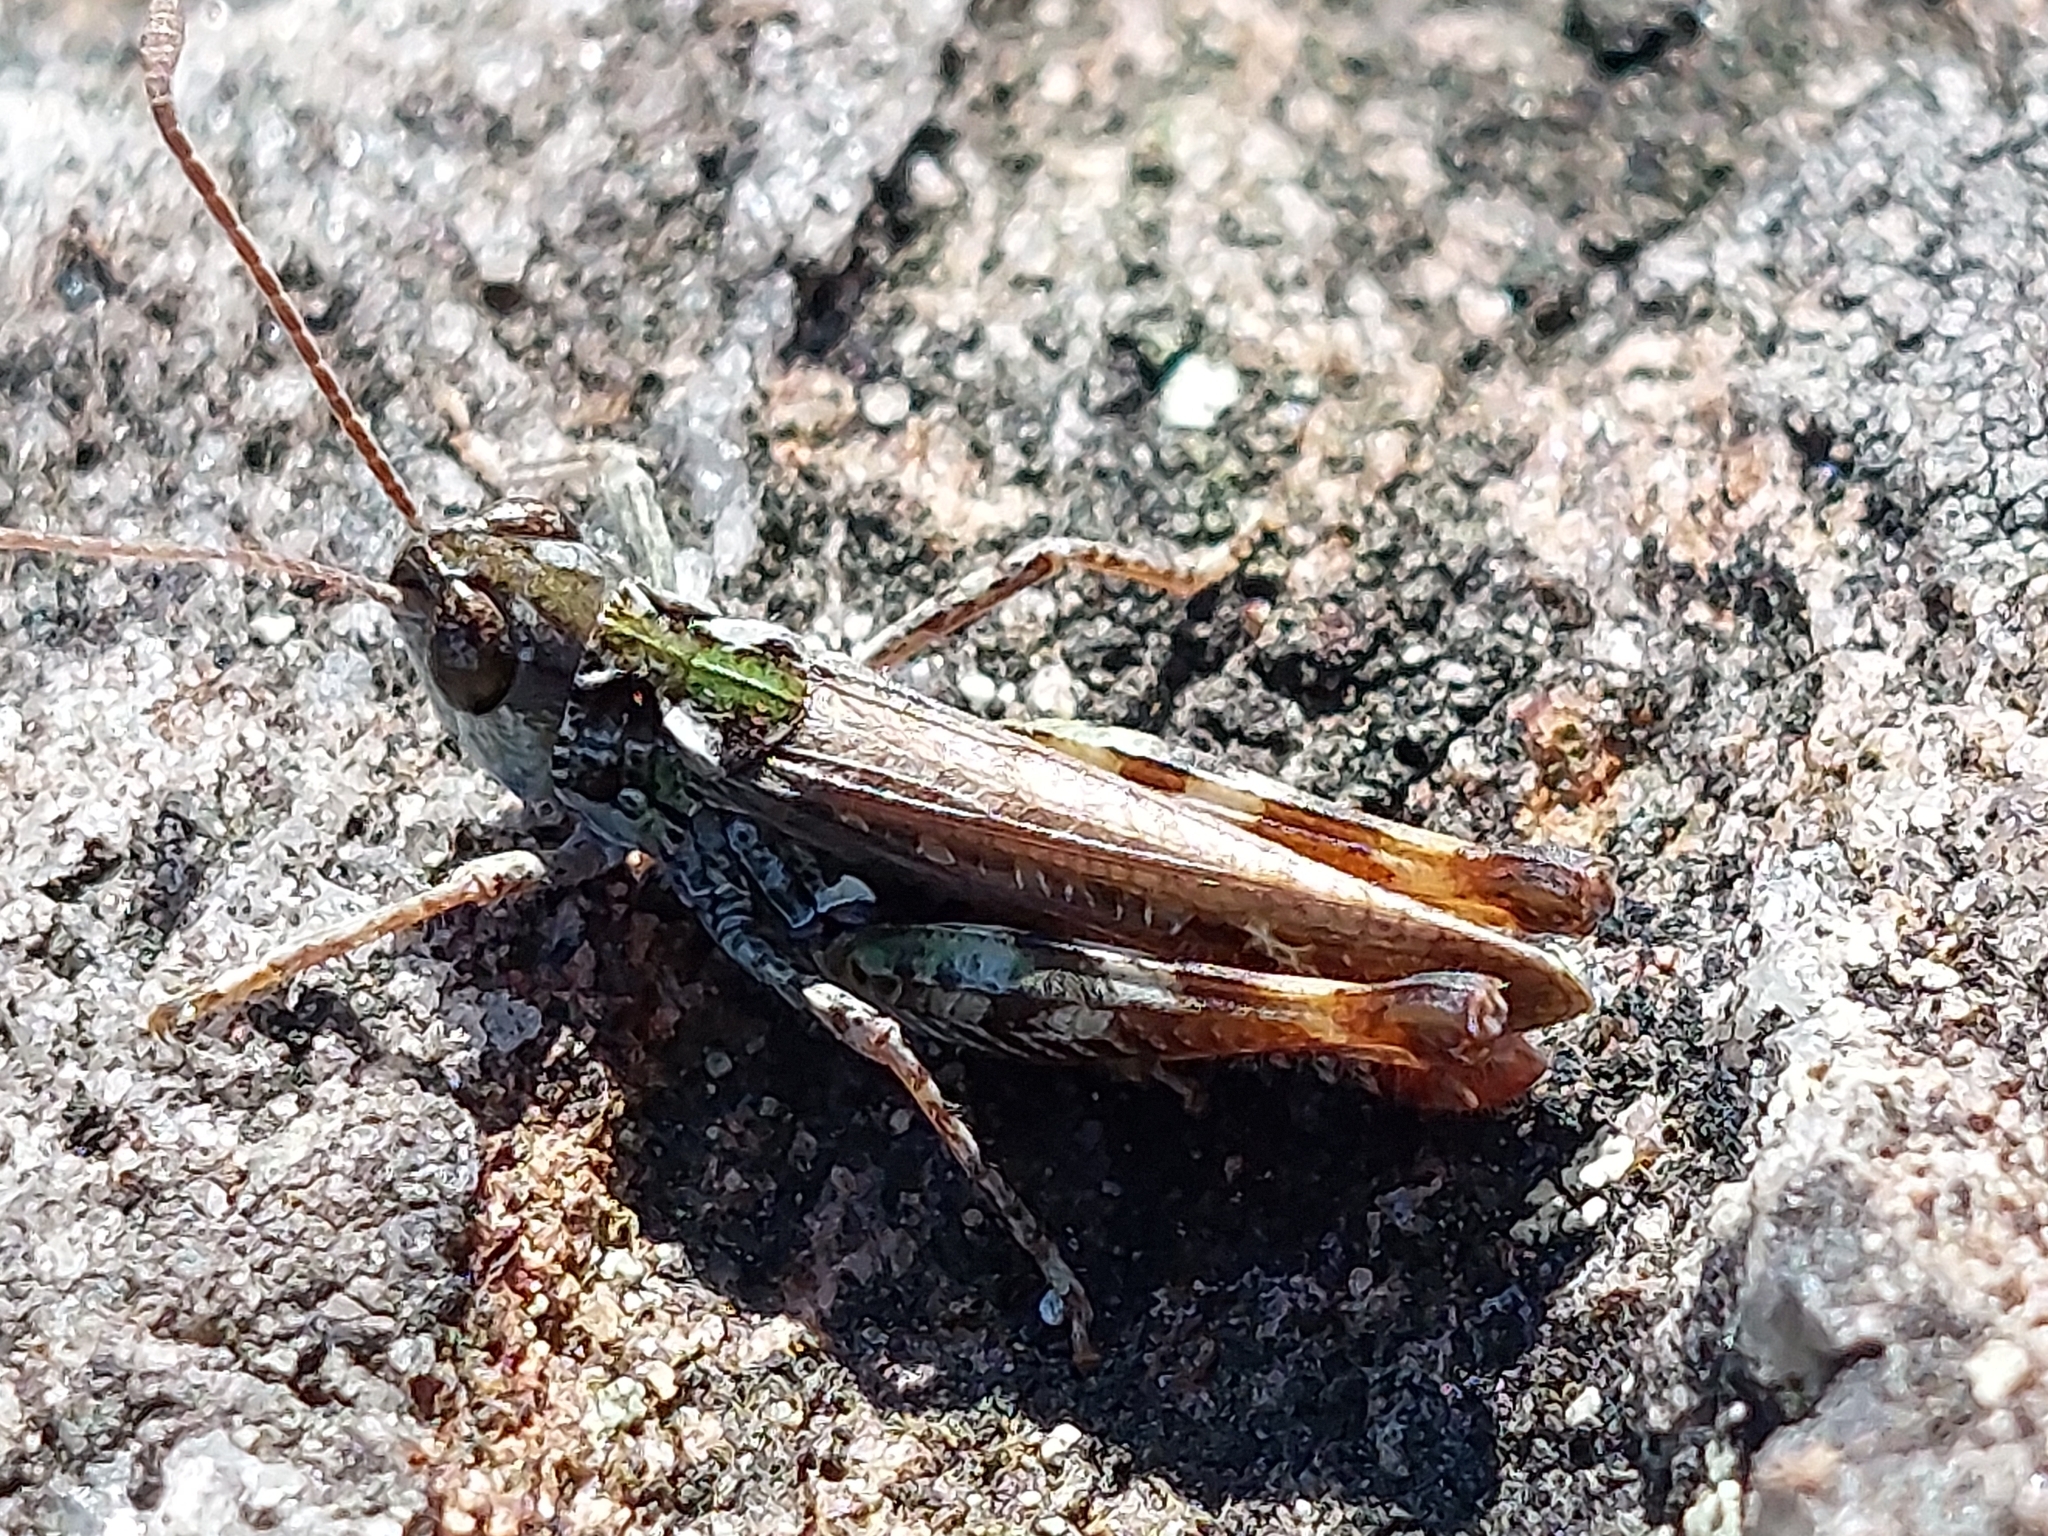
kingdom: Animalia
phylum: Arthropoda
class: Insecta
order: Orthoptera
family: Acrididae
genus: Myrmeleotettix
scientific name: Myrmeleotettix maculatus
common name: Mottled grasshopper
